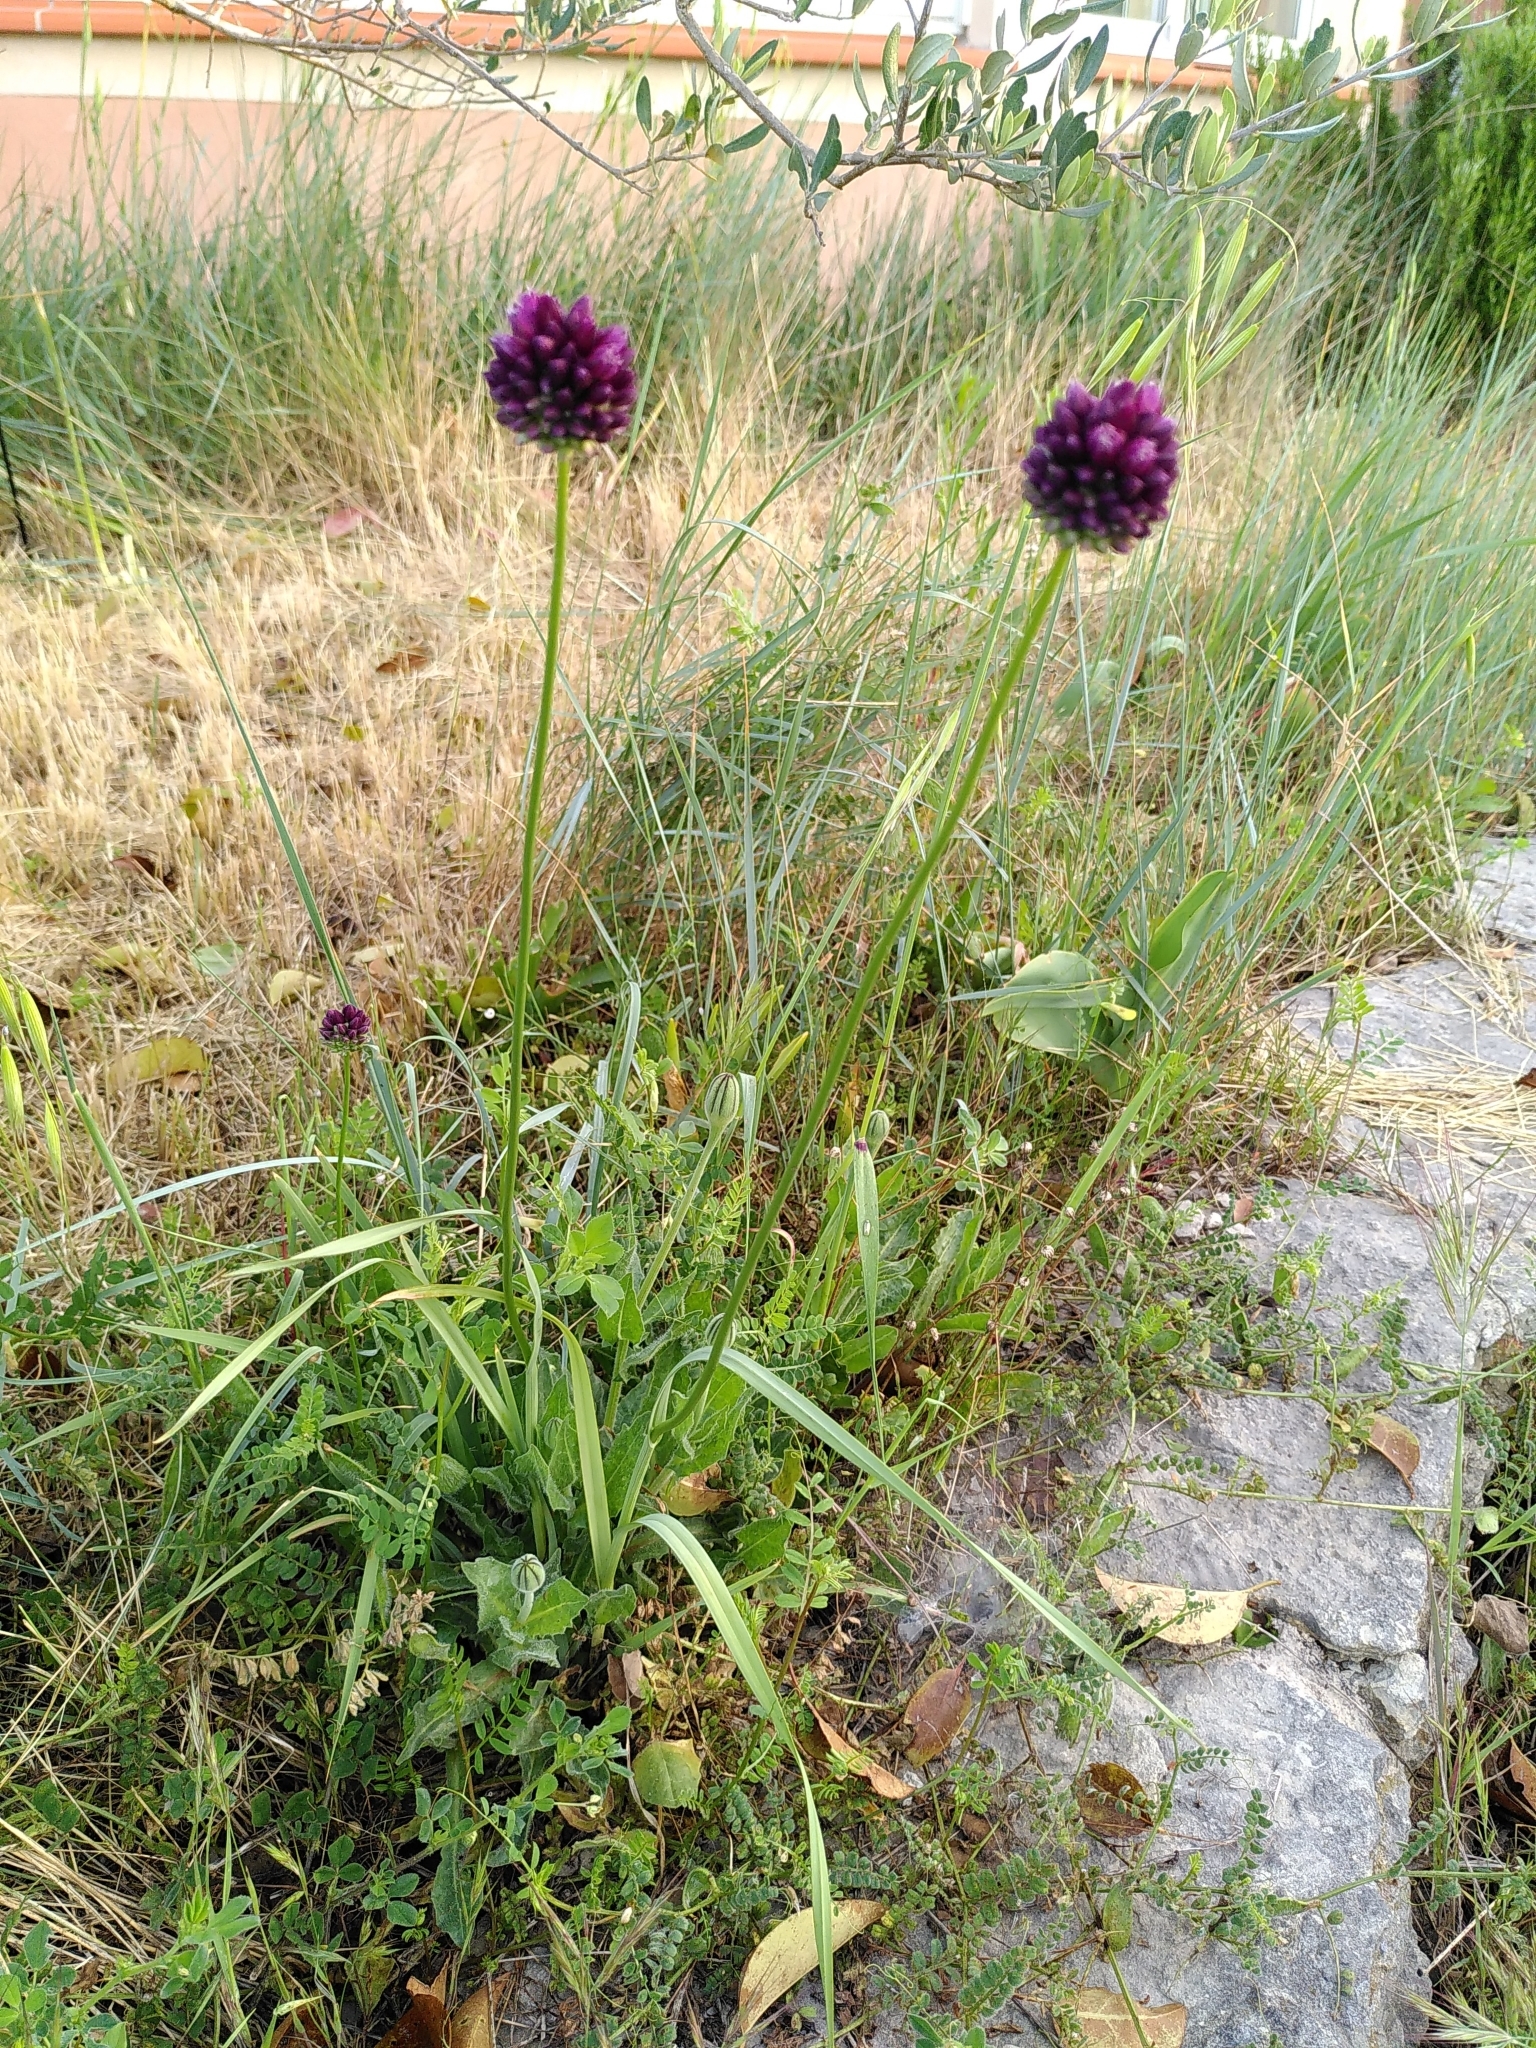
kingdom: Plantae
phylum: Tracheophyta
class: Liliopsida
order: Asparagales
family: Amaryllidaceae
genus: Allium
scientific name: Allium rotundum
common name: Sand leek
